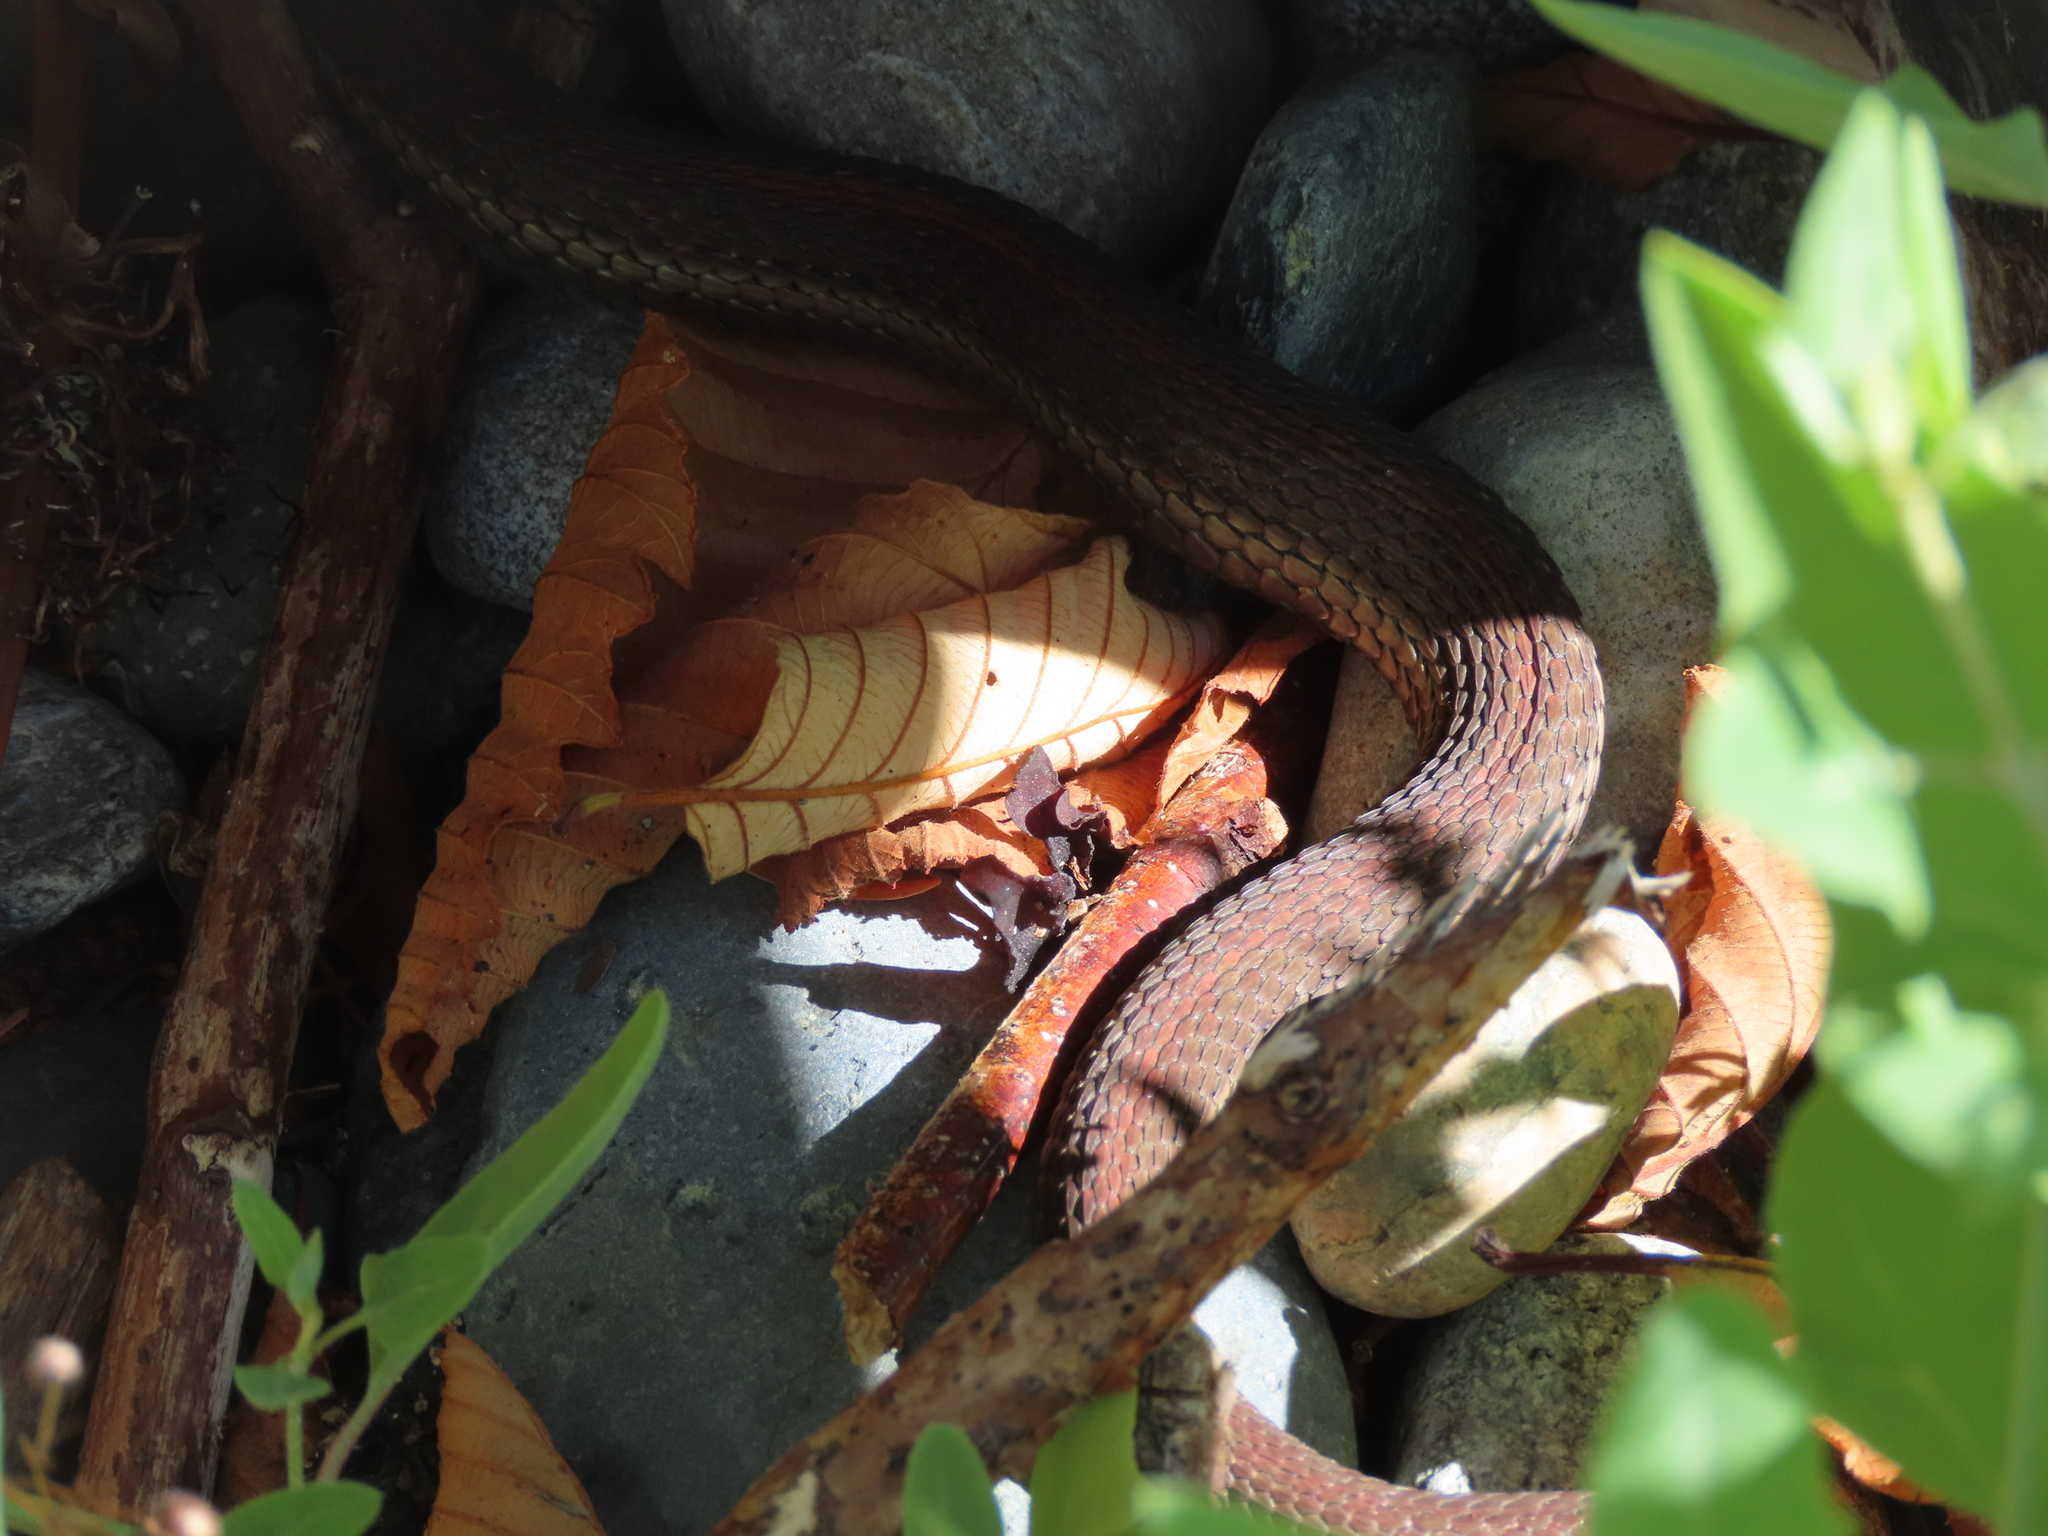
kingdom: Animalia
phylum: Chordata
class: Squamata
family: Colubridae
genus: Thamnophis
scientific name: Thamnophis ordinoides
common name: Northwestern garter snake
